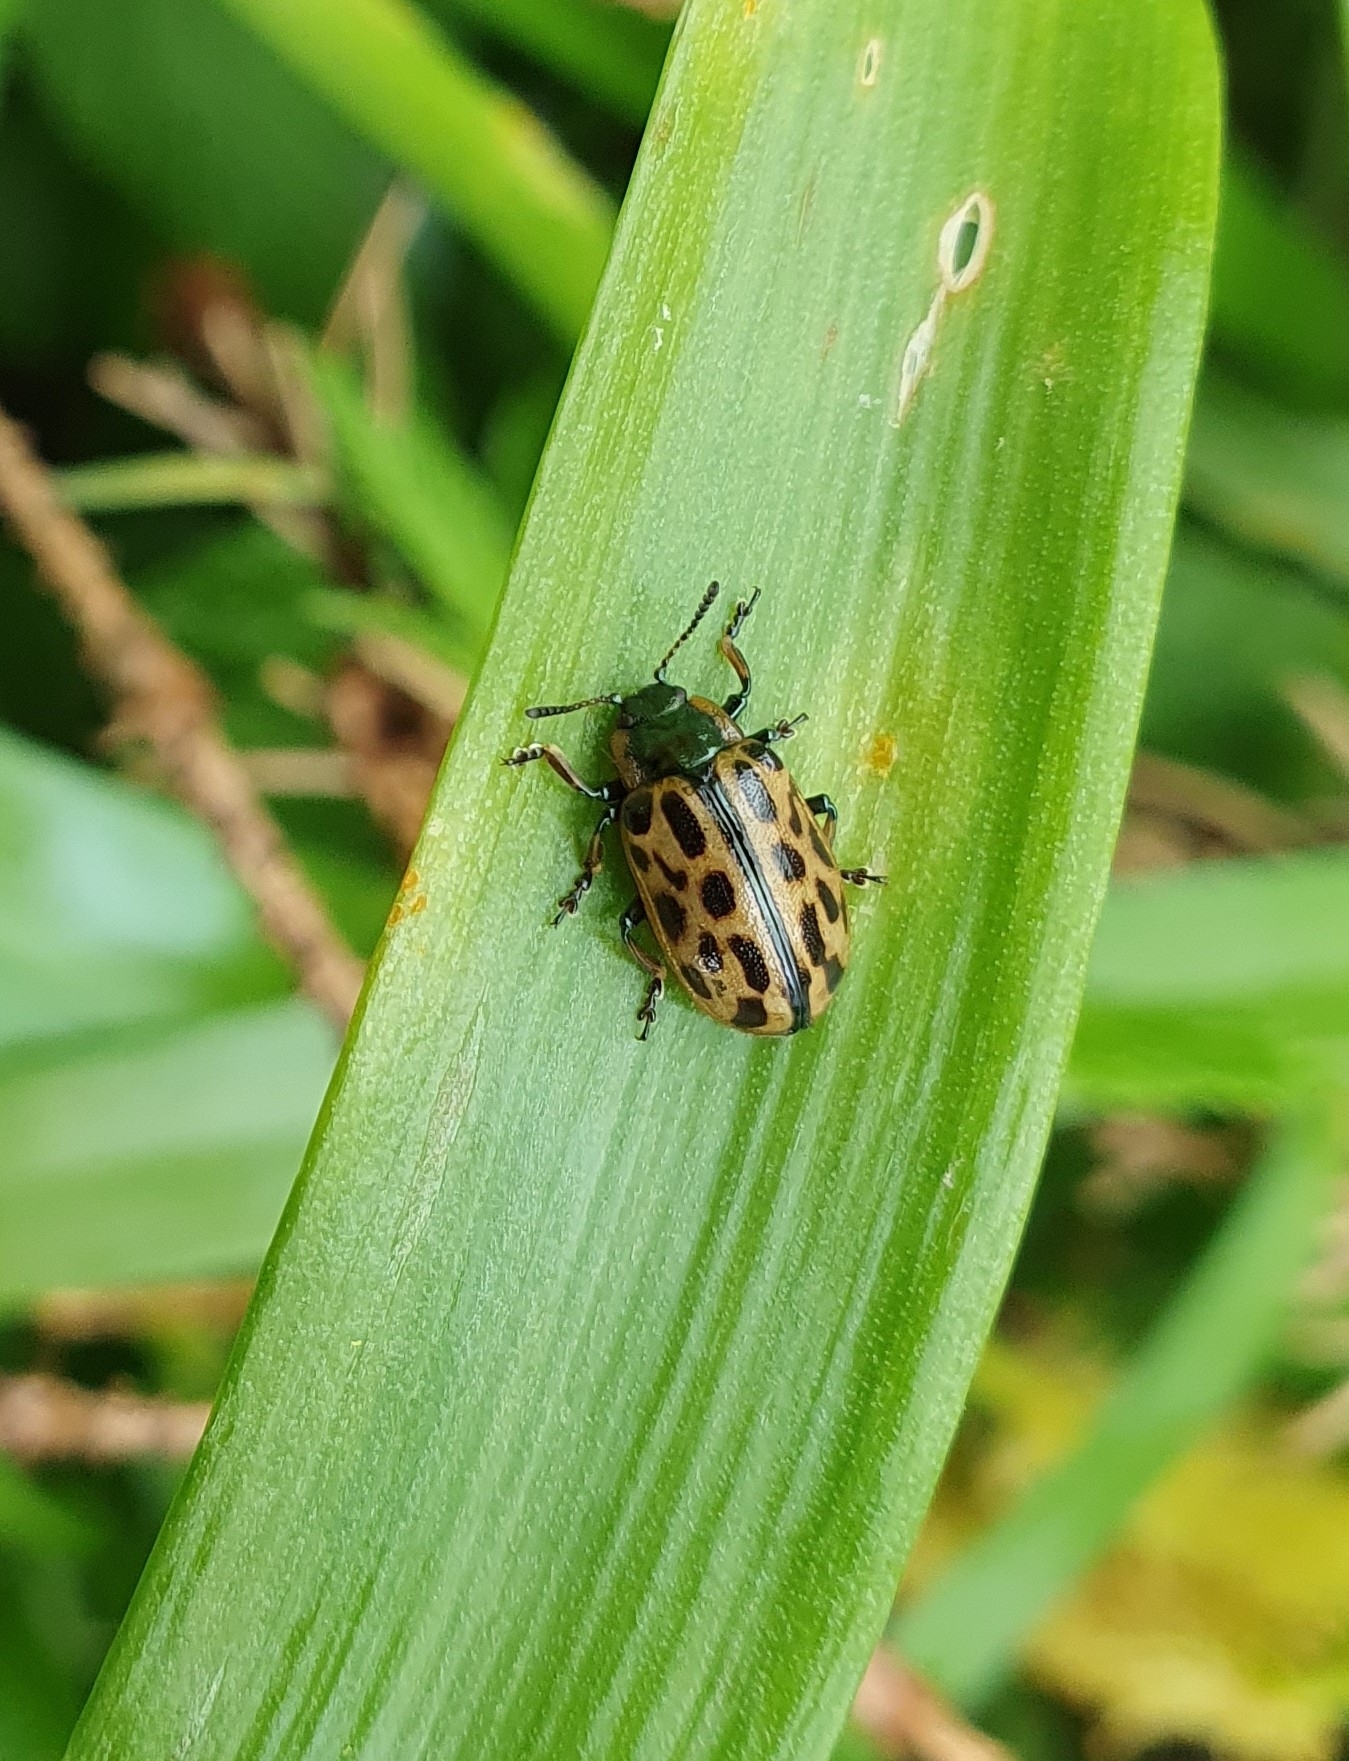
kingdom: Animalia
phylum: Arthropoda
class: Insecta
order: Coleoptera
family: Chrysomelidae
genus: Chrysomela
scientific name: Chrysomela vigintipunctata
